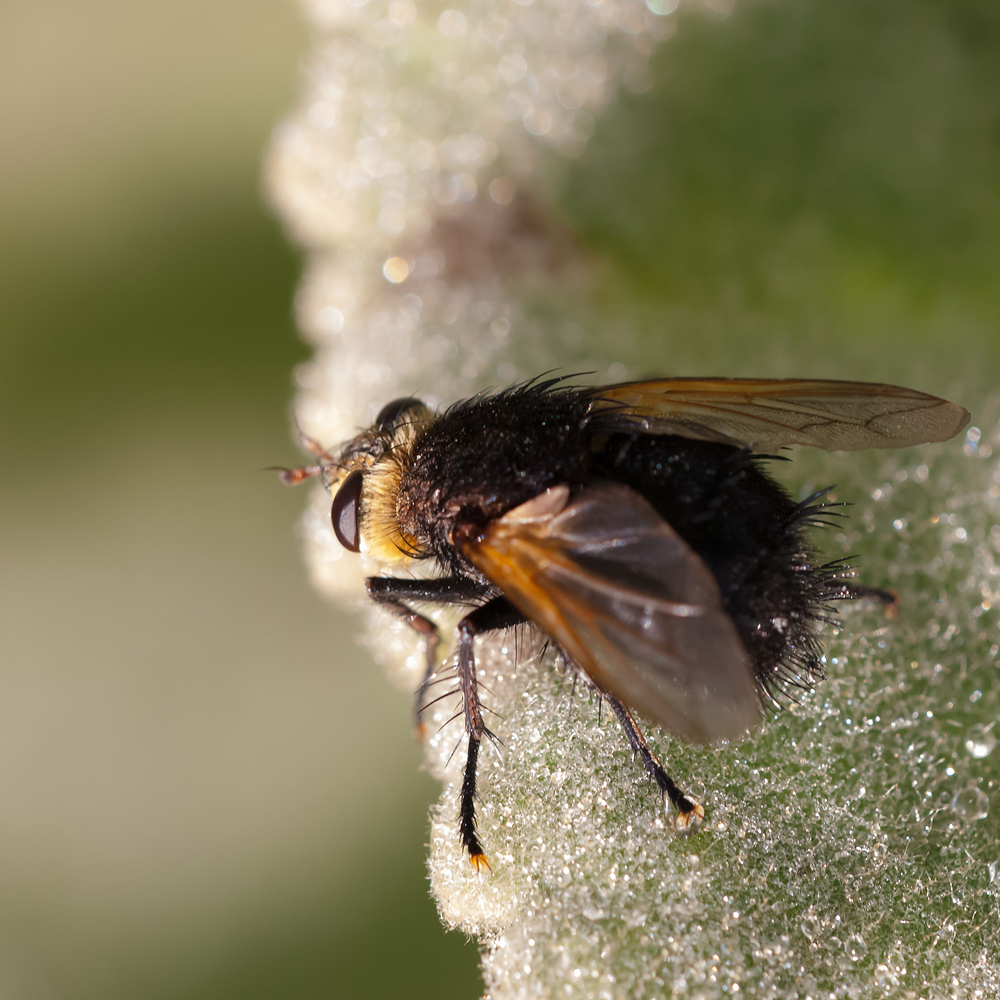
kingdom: Animalia
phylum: Arthropoda
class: Insecta
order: Diptera
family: Tachinidae
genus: Tachina
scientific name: Tachina grossa
